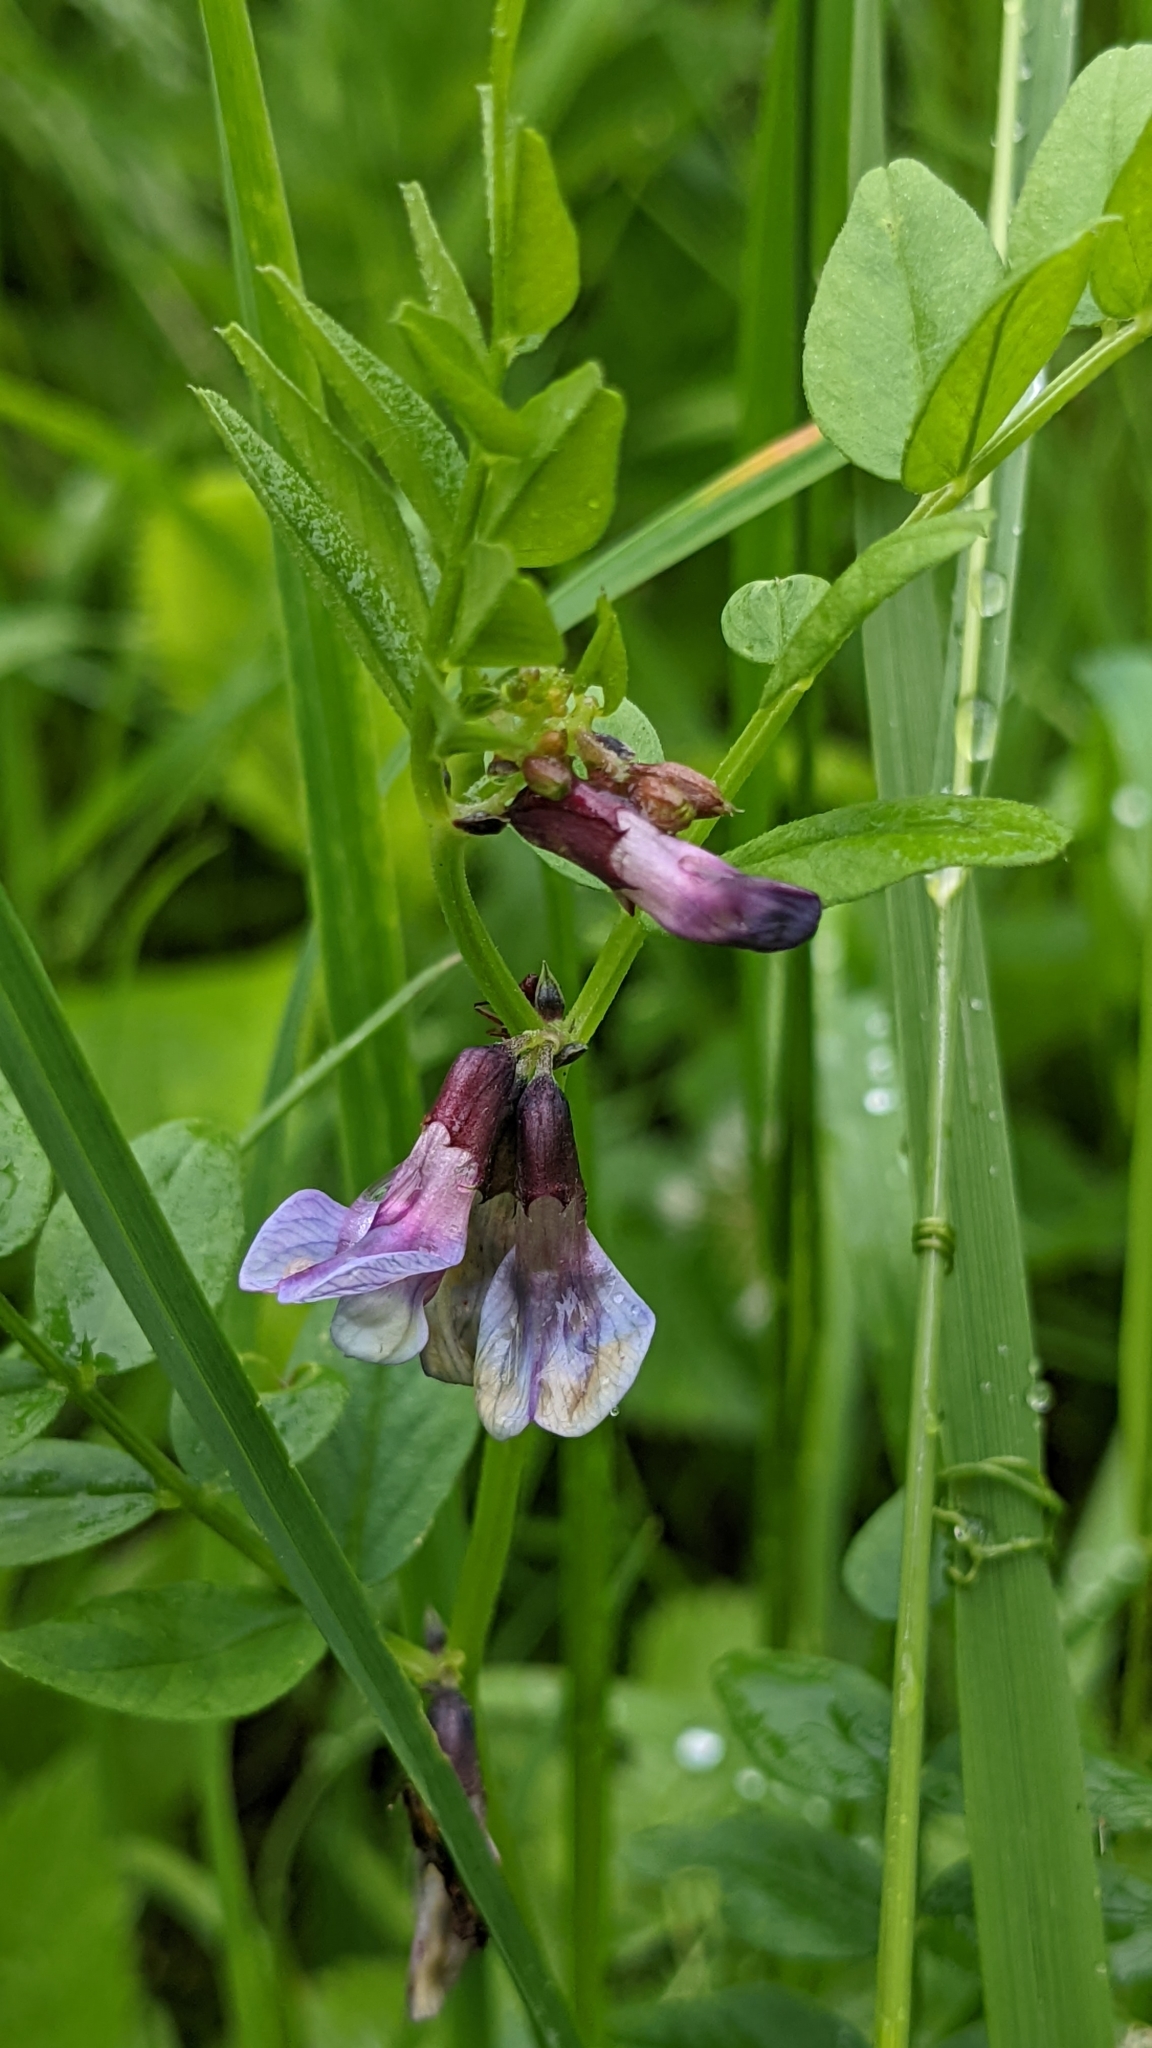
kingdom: Plantae
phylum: Tracheophyta
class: Magnoliopsida
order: Fabales
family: Fabaceae
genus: Vicia
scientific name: Vicia sepium
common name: Bush vetch
